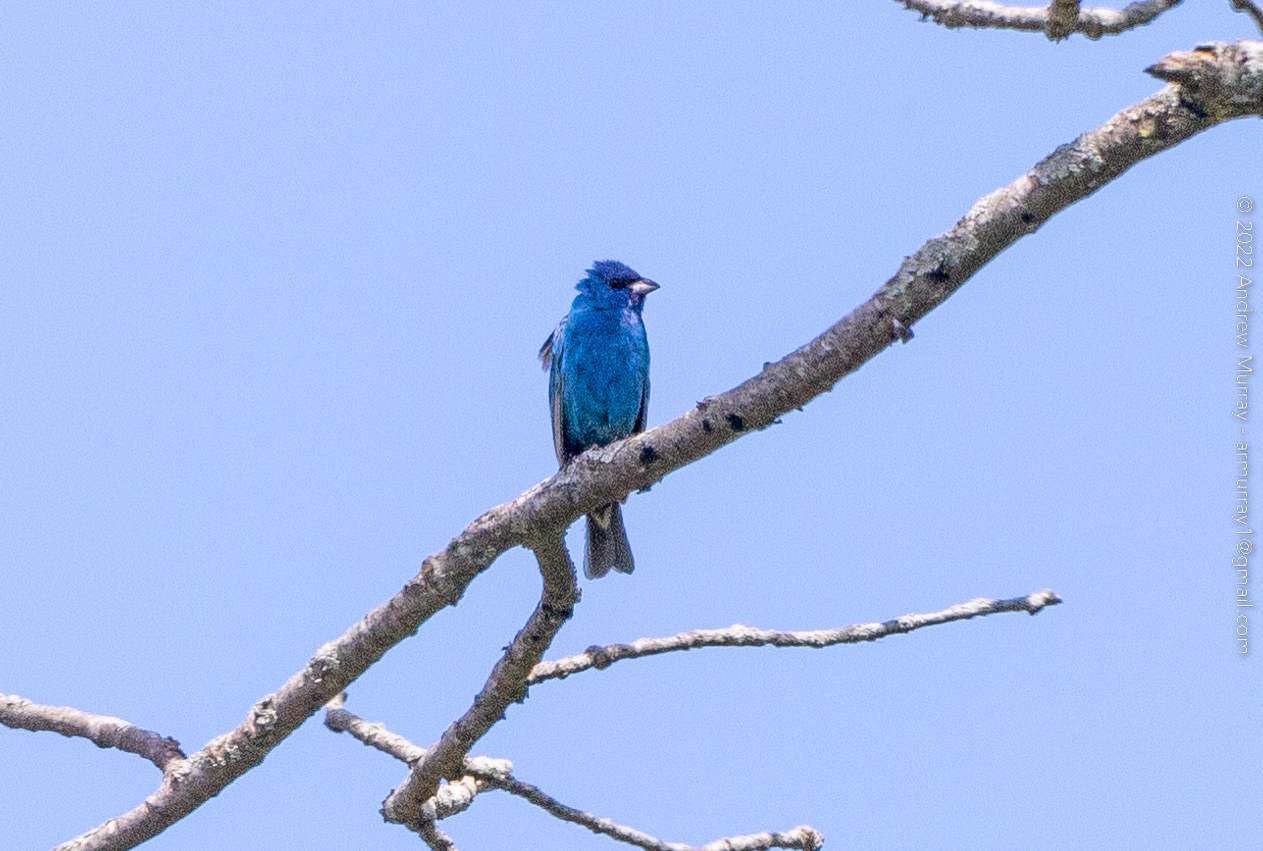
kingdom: Animalia
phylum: Chordata
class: Aves
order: Passeriformes
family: Cardinalidae
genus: Passerina
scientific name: Passerina cyanea
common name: Indigo bunting
